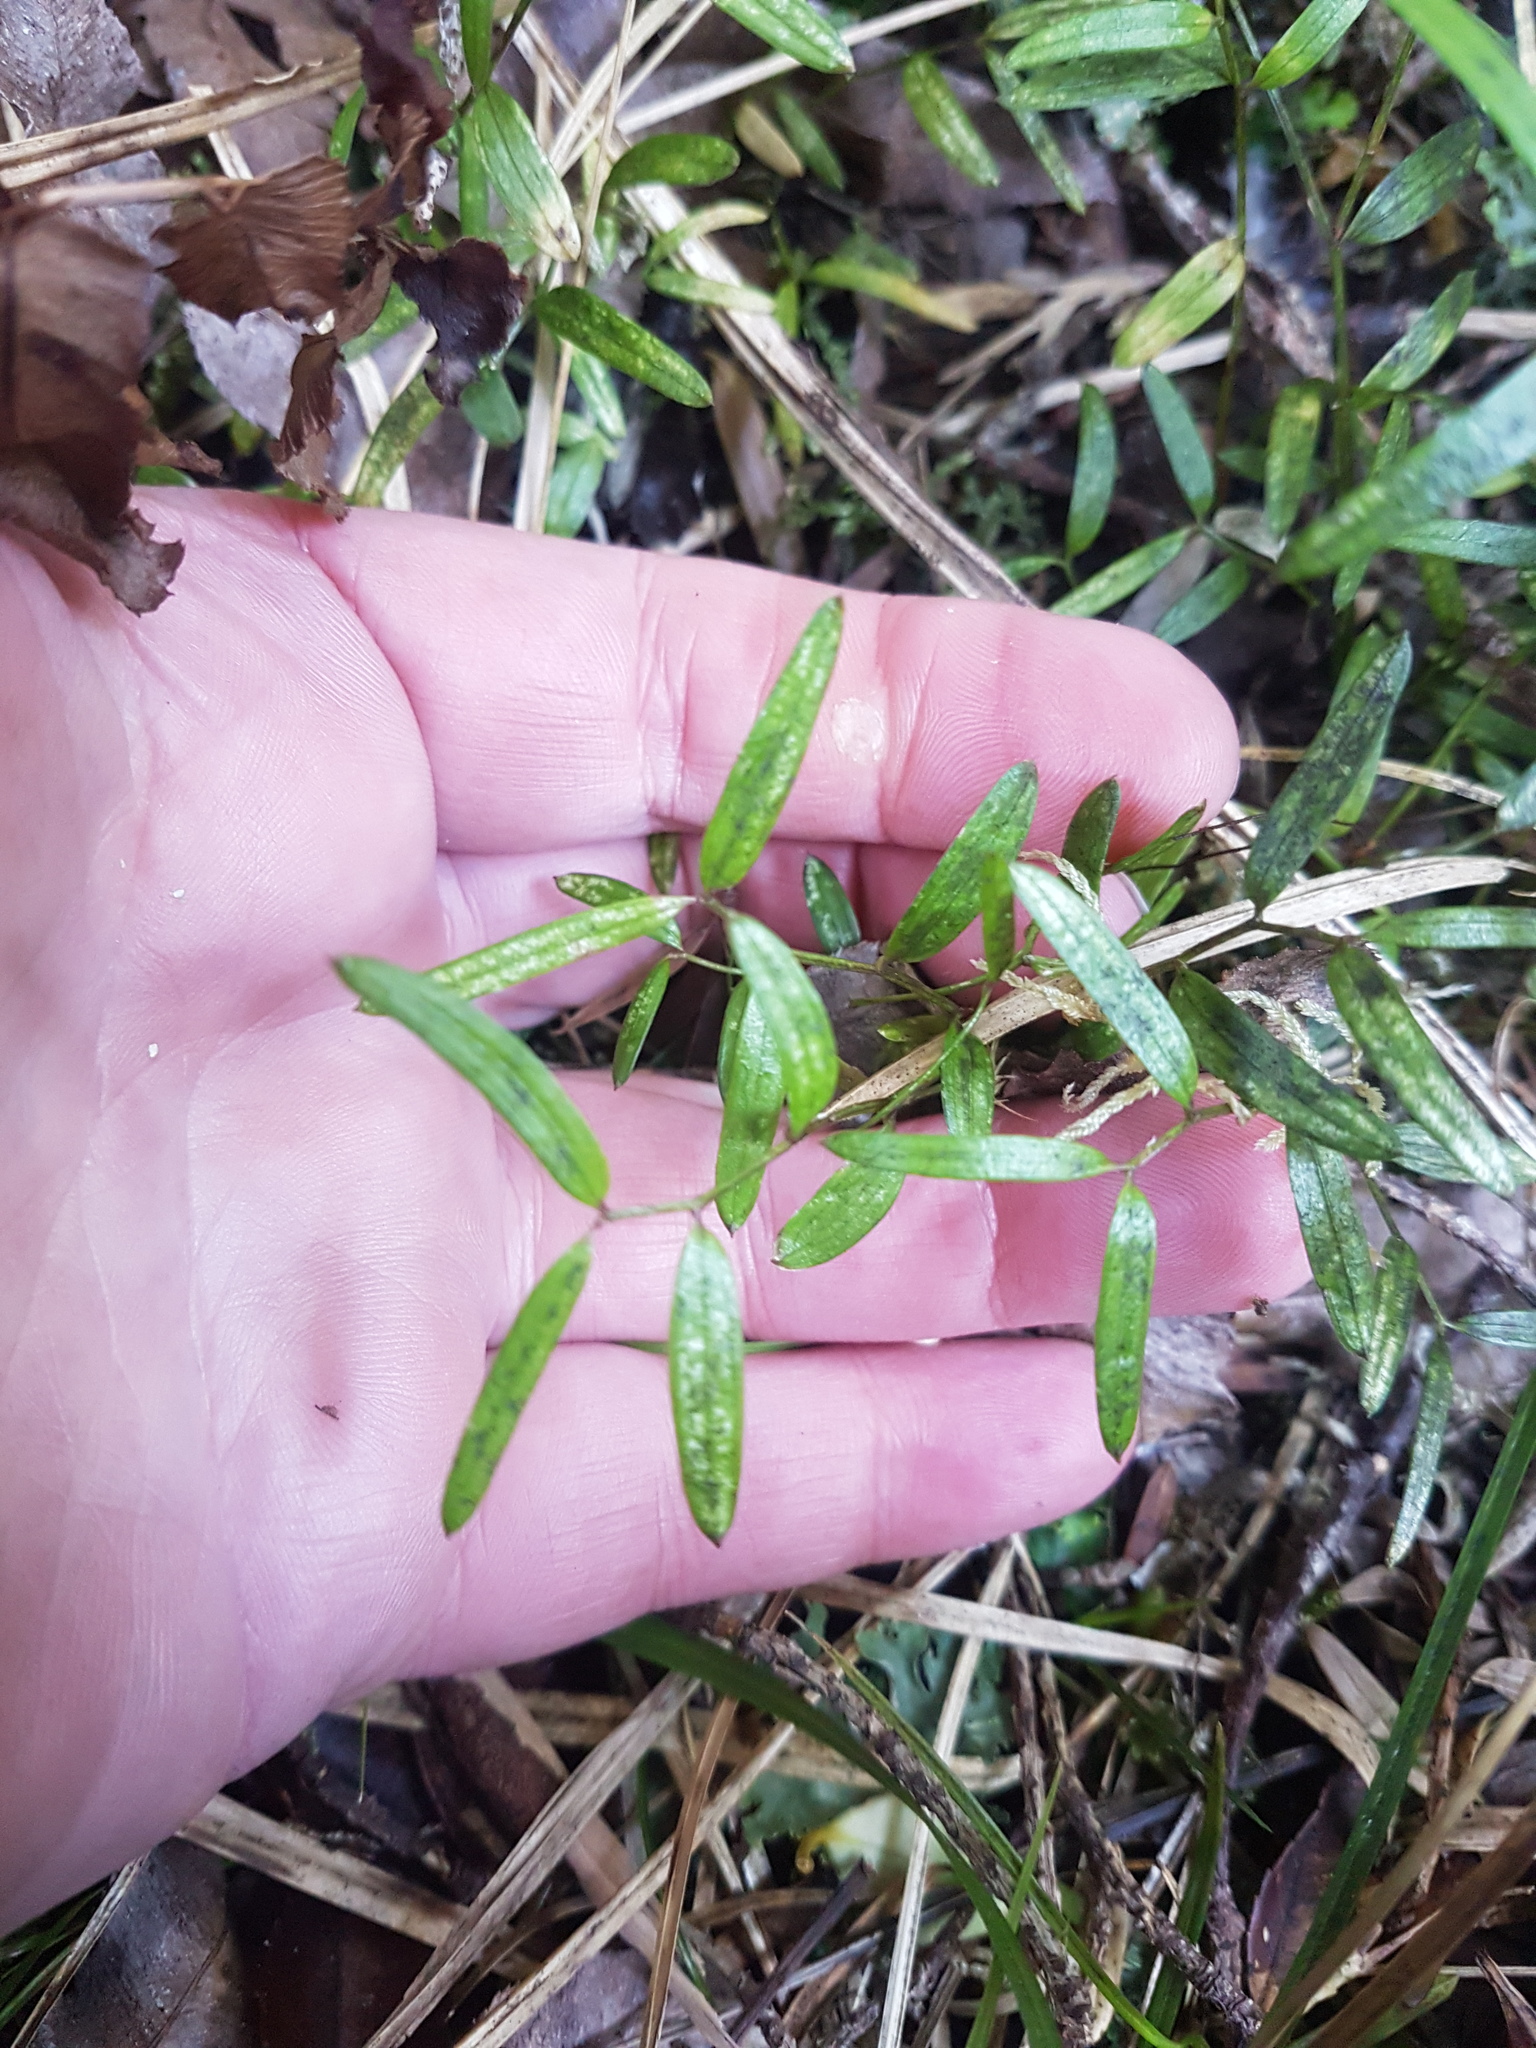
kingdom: Plantae
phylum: Tracheophyta
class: Liliopsida
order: Liliales
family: Alstroemeriaceae
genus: Luzuriaga
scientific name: Luzuriaga parviflora
